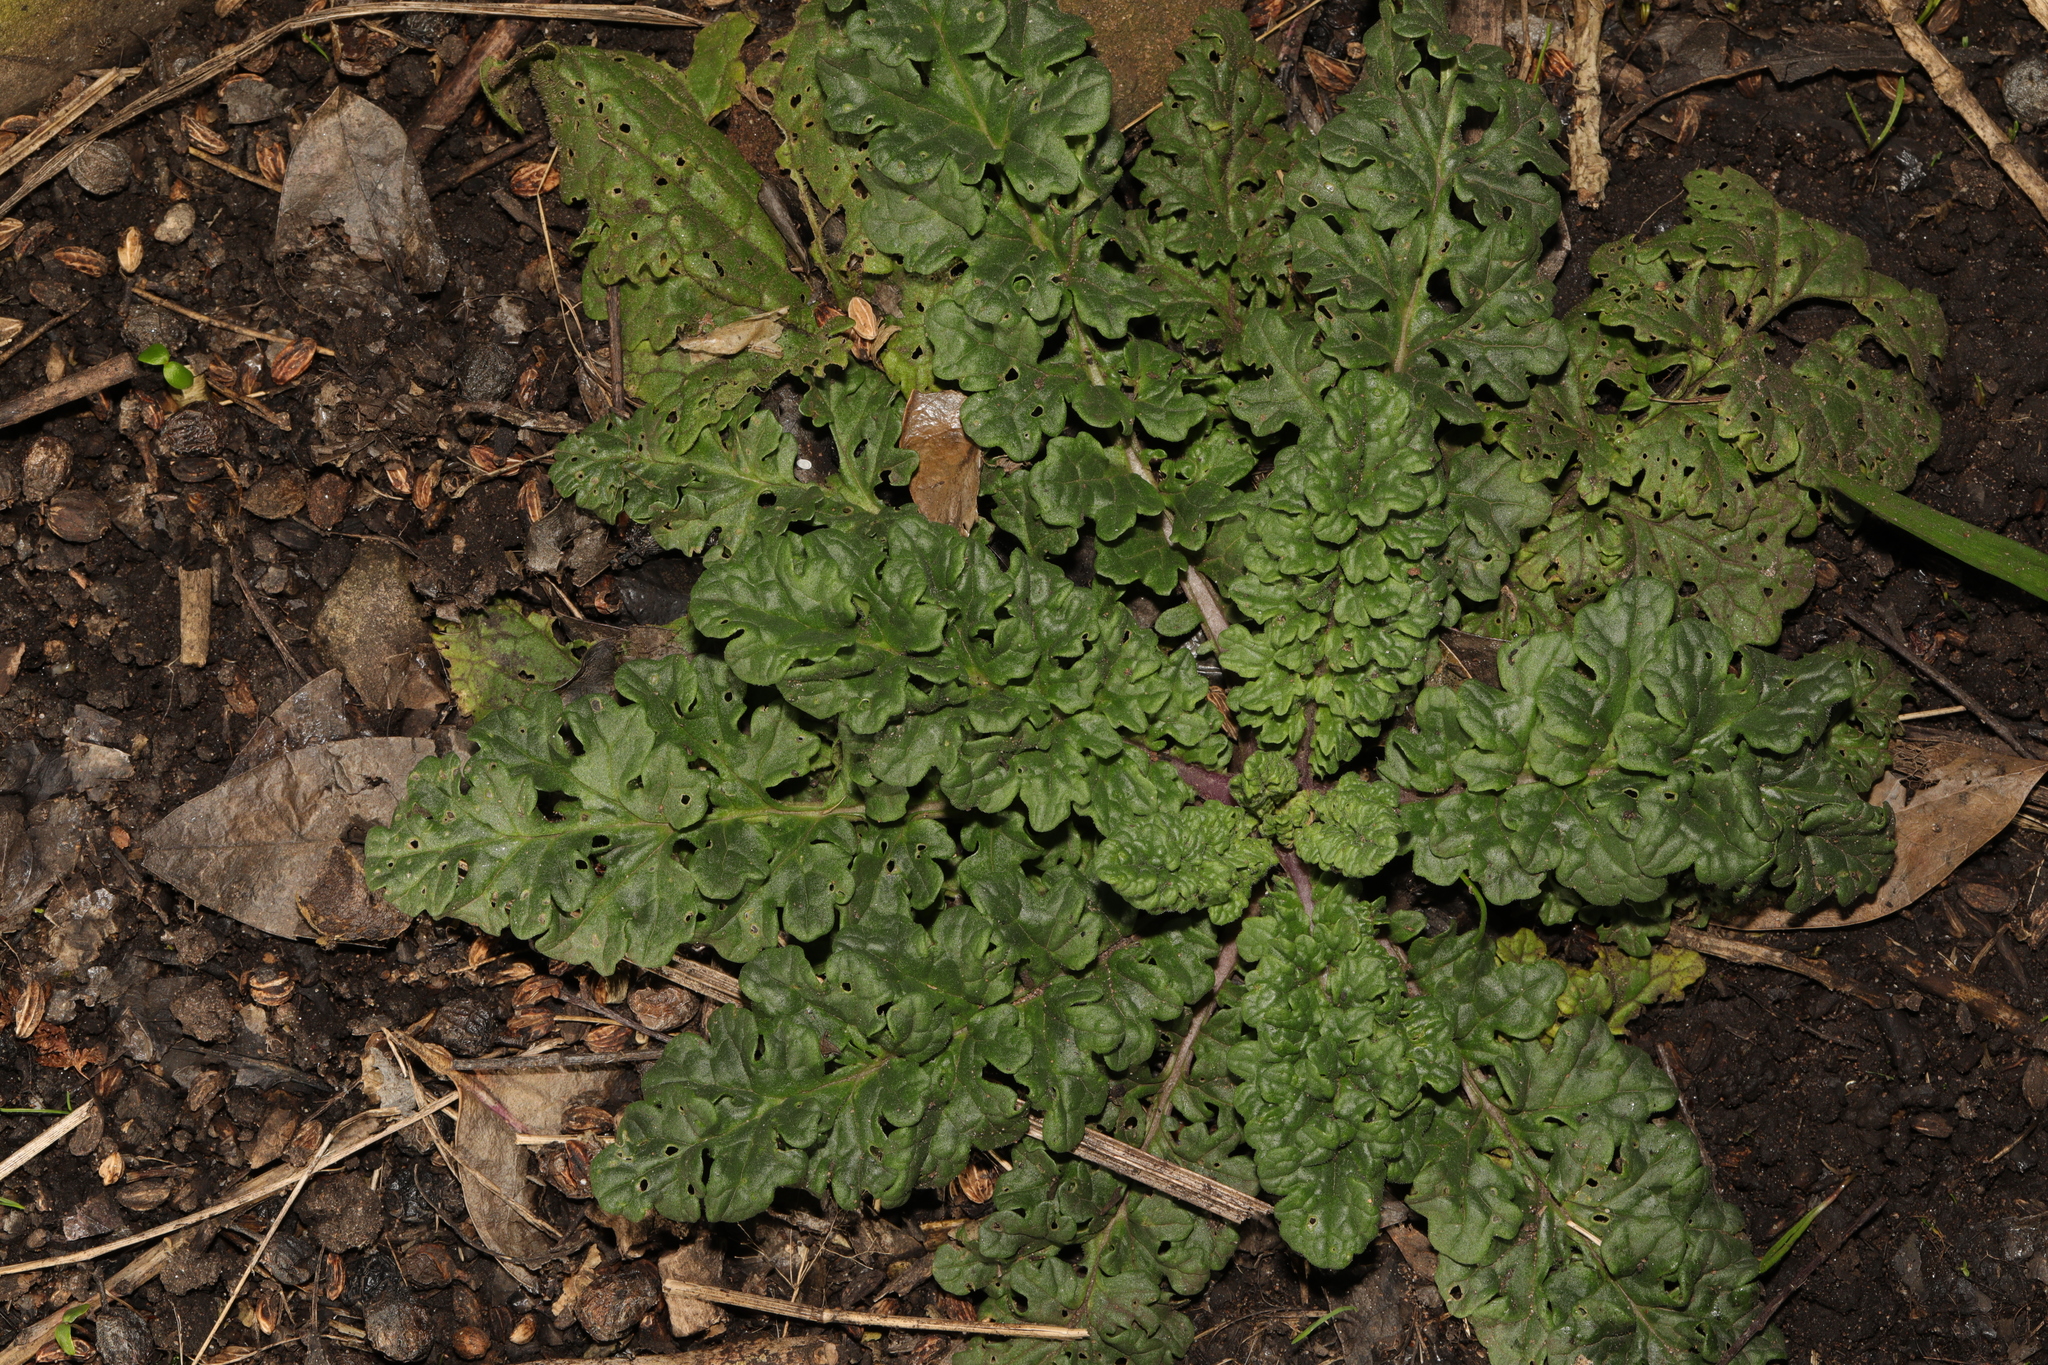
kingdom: Plantae
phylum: Tracheophyta
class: Magnoliopsida
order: Asterales
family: Asteraceae
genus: Jacobaea
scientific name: Jacobaea vulgaris
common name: Stinking willie
